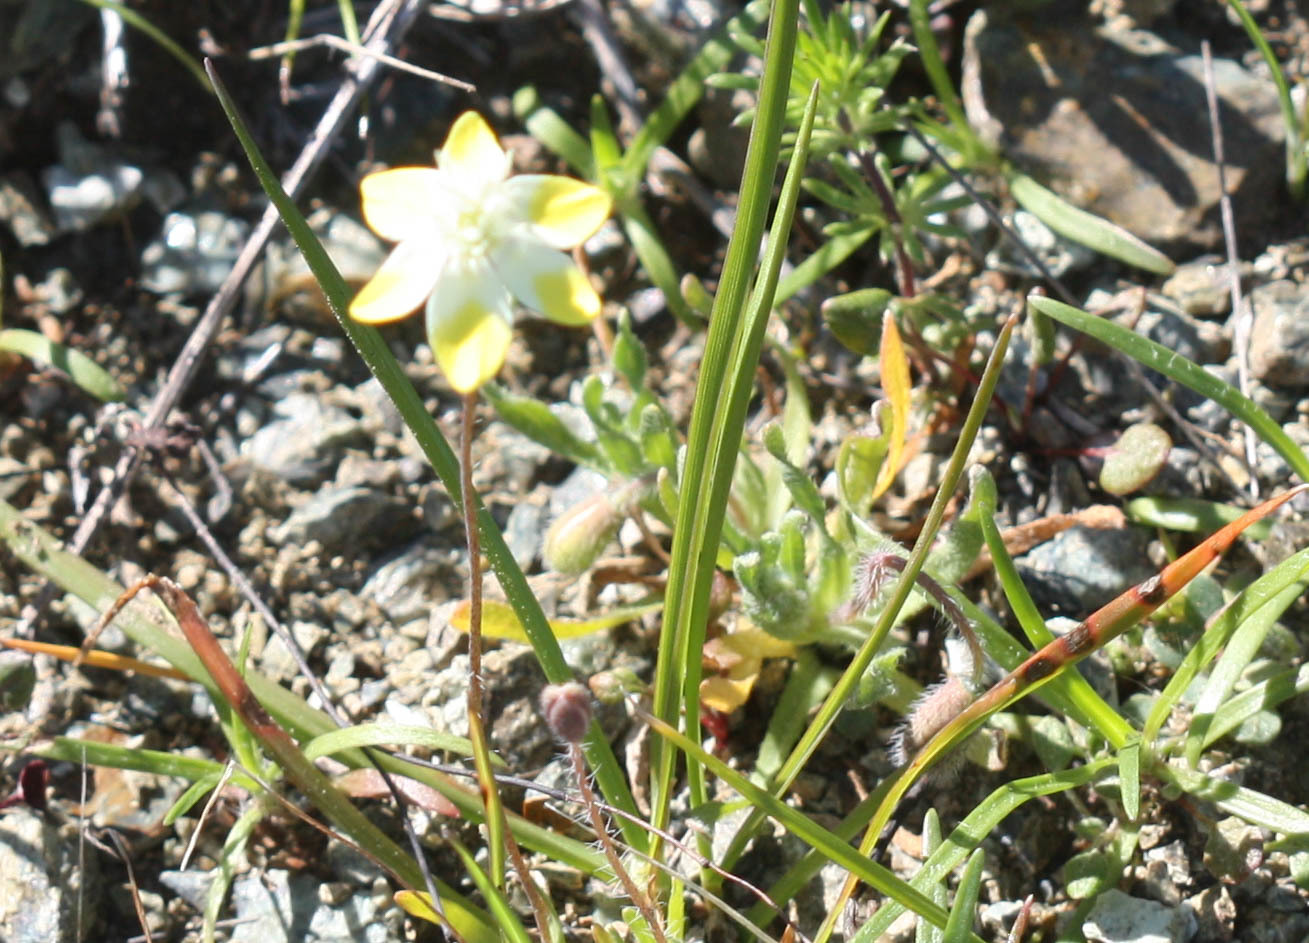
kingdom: Plantae
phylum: Tracheophyta
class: Magnoliopsida
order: Ranunculales
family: Papaveraceae
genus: Platystemon
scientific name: Platystemon californicus
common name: Cream-cups
